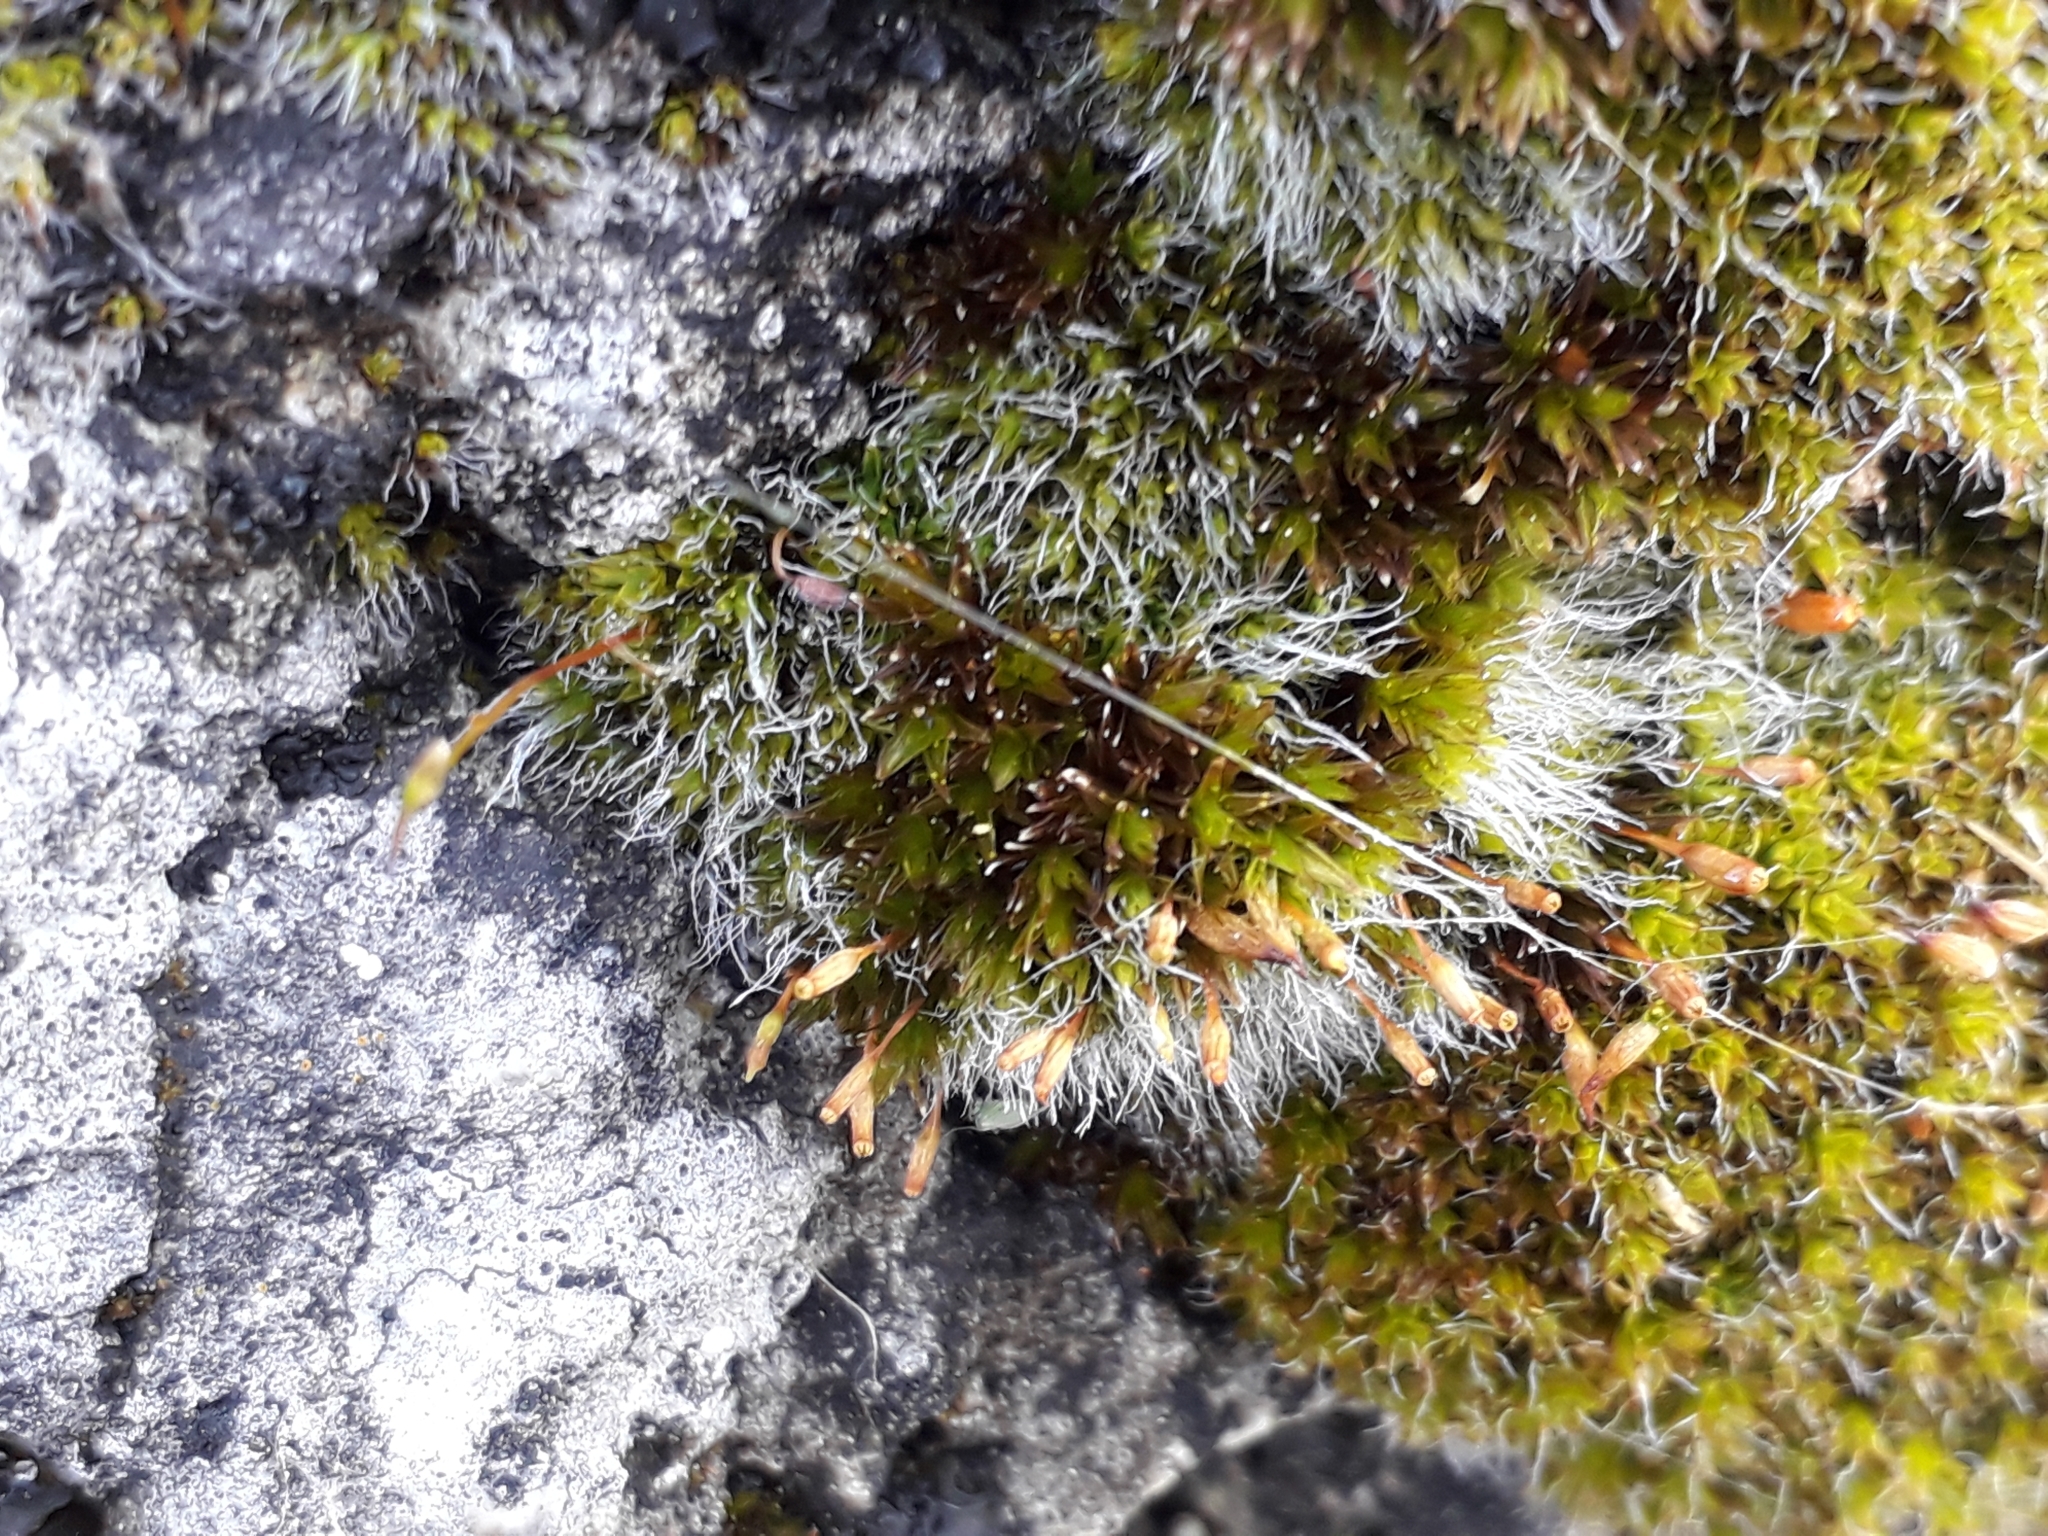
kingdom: Plantae
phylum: Bryophyta
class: Bryopsida
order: Grimmiales
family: Grimmiaceae
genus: Grimmia
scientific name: Grimmia pulvinata
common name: Grey-cushioned grimmia
